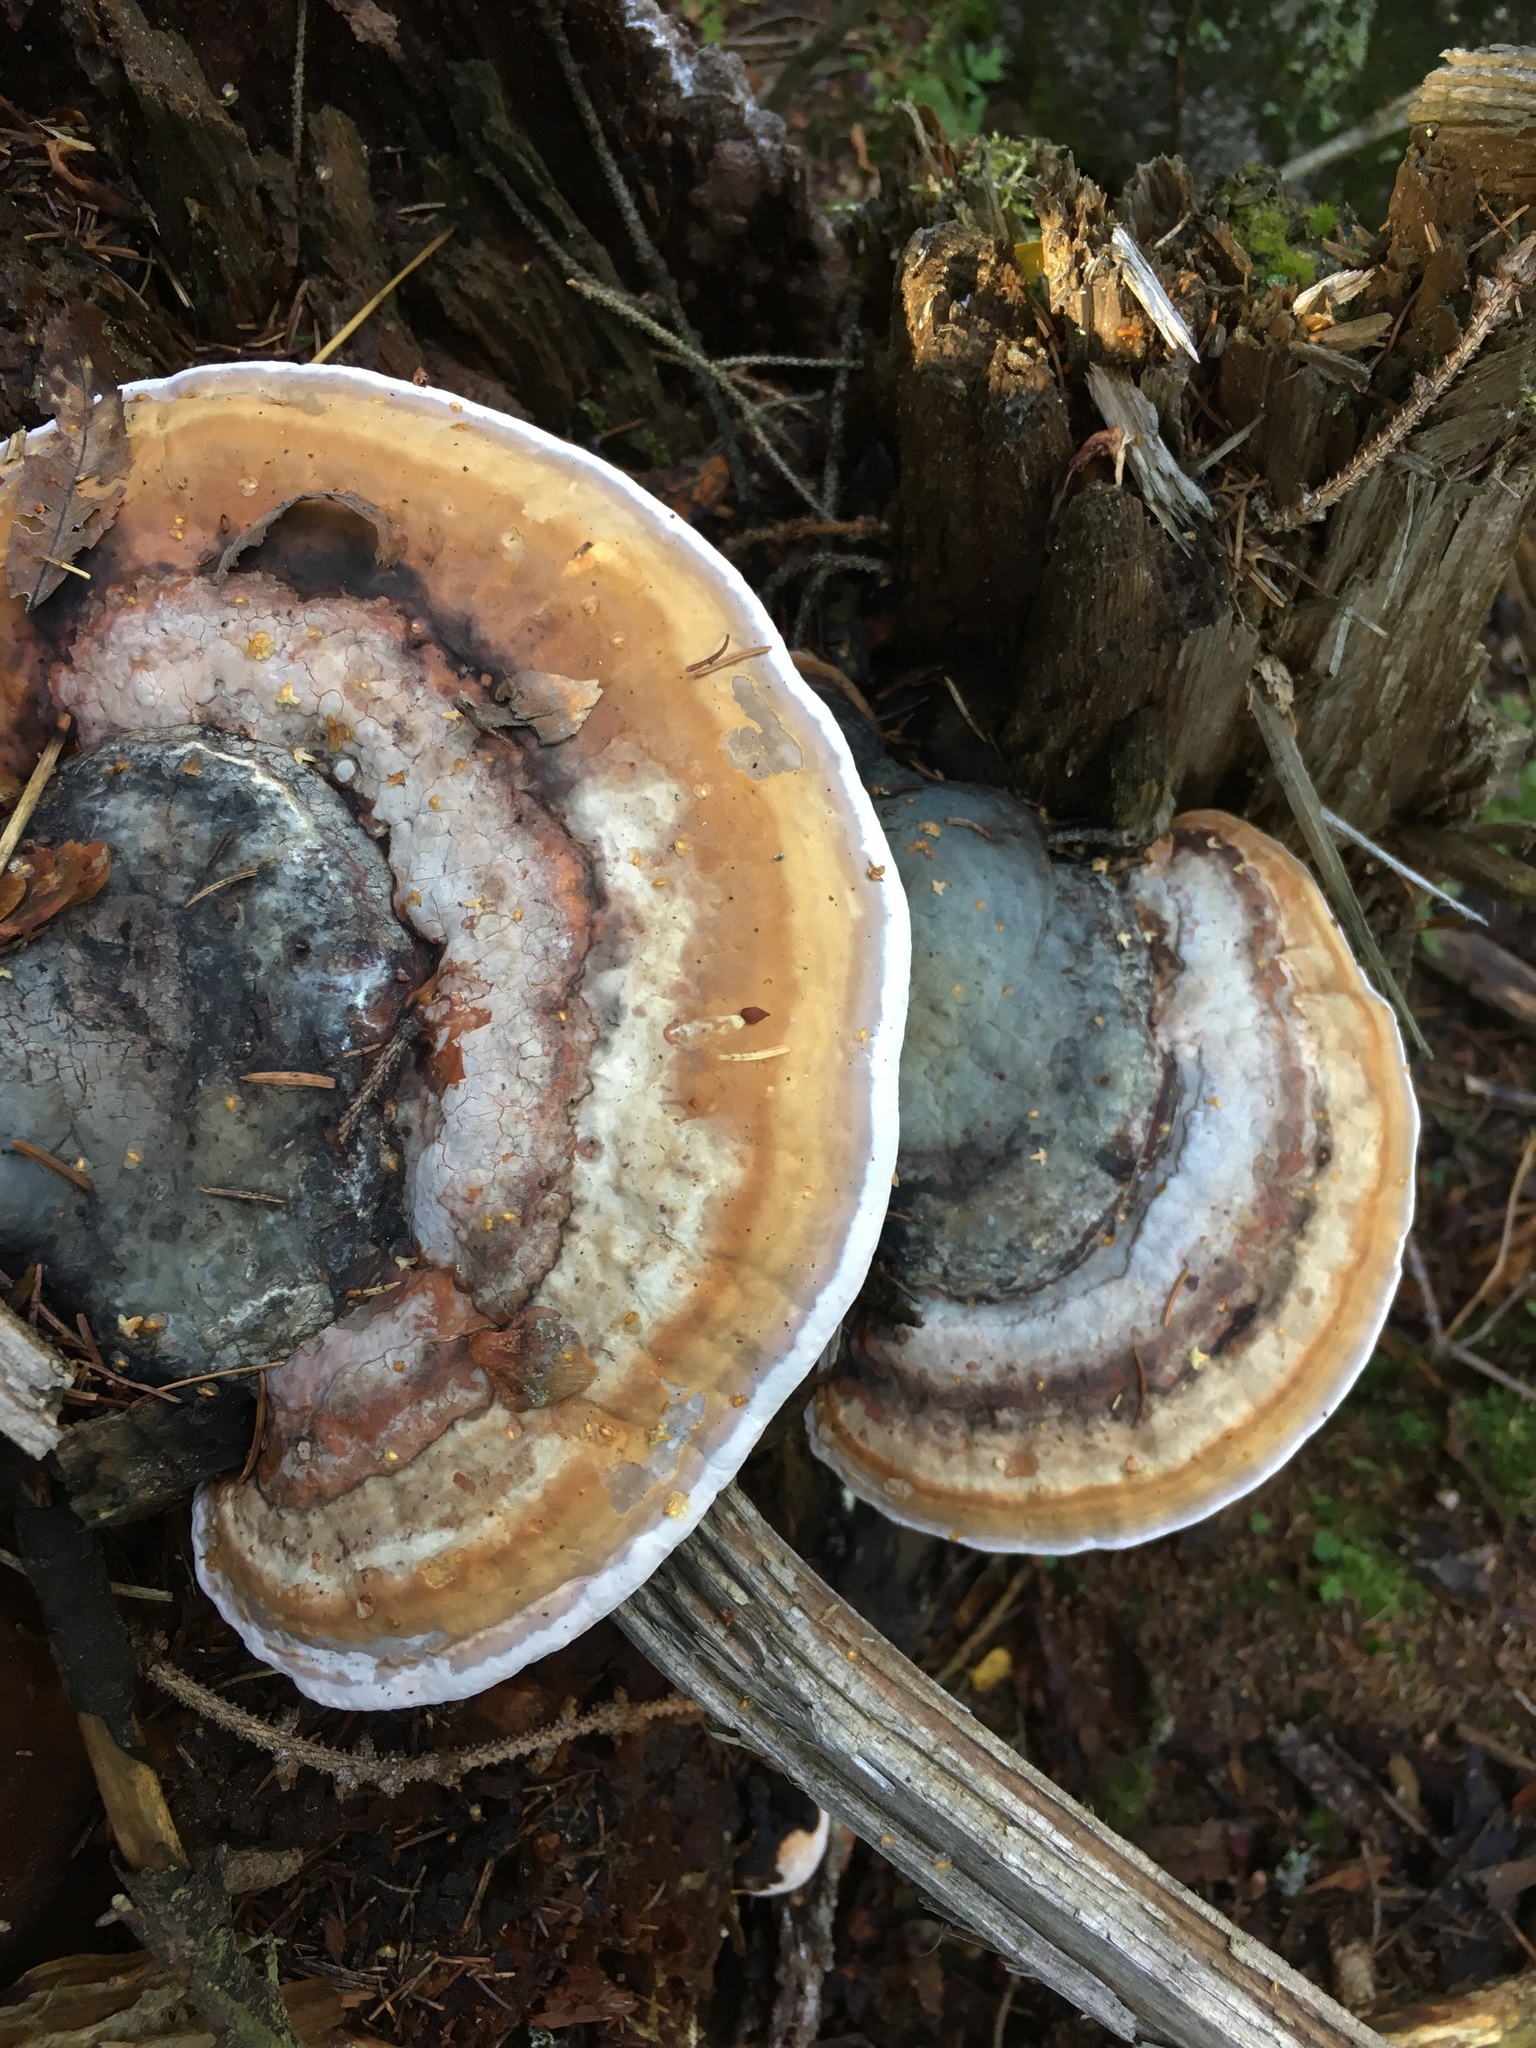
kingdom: Fungi
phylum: Basidiomycota
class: Agaricomycetes
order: Polyporales
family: Fomitopsidaceae
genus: Fomitopsis
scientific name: Fomitopsis pinicola
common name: Red-belted bracket
